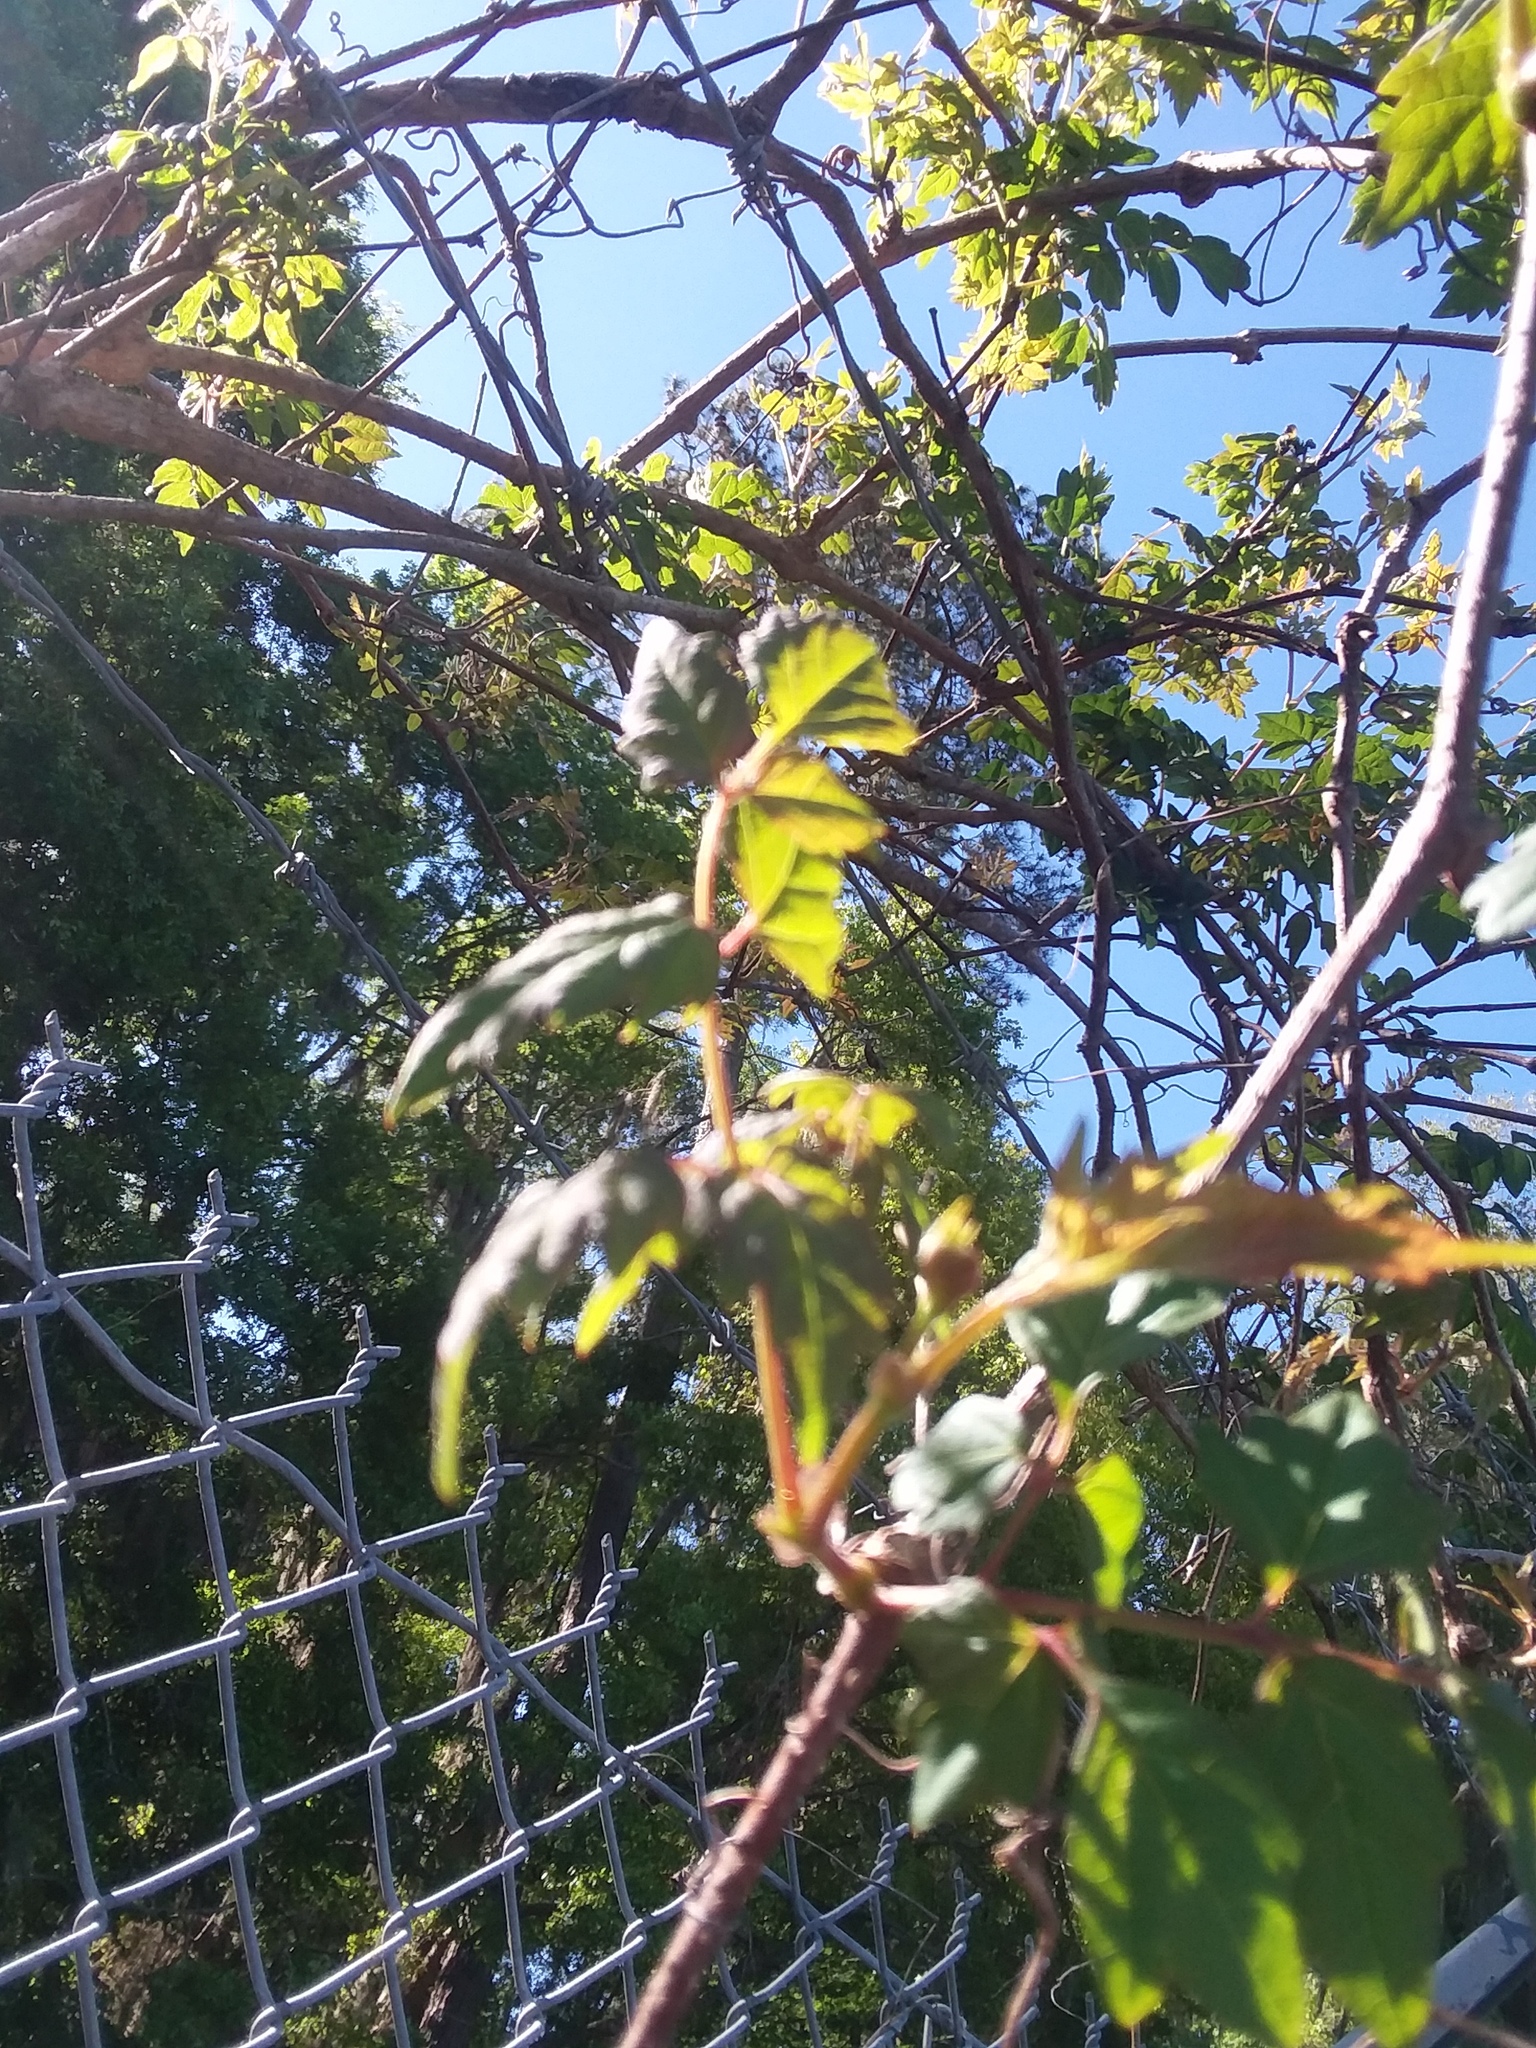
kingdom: Plantae
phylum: Tracheophyta
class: Magnoliopsida
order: Vitales
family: Vitaceae
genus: Nekemias
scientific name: Nekemias arborea
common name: Peppervine
